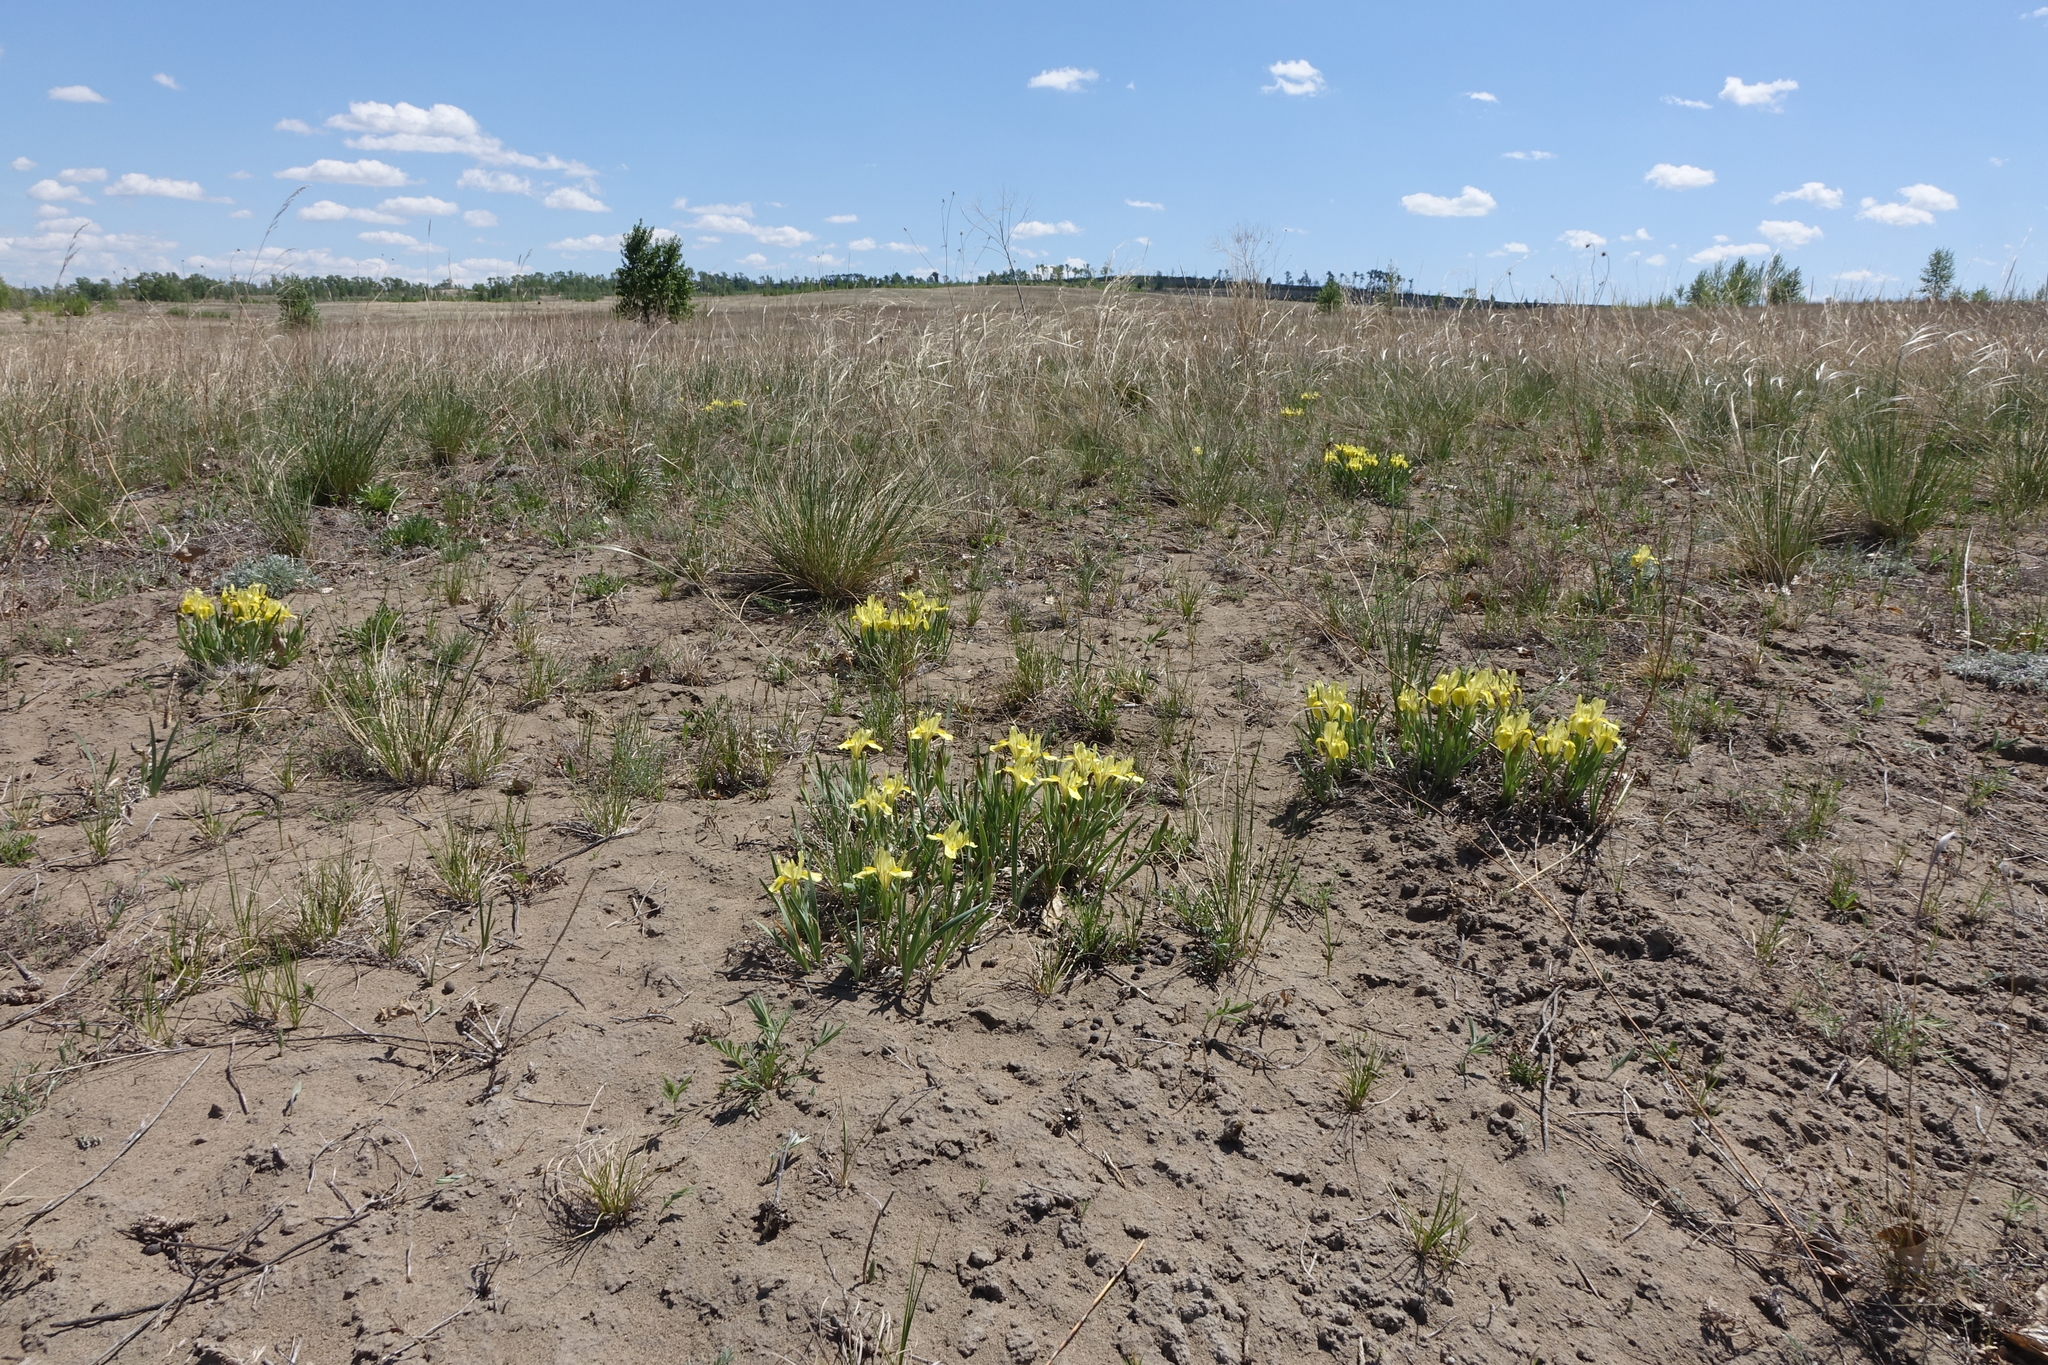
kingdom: Plantae
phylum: Tracheophyta
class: Liliopsida
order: Asparagales
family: Iridaceae
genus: Iris
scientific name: Iris humilis
